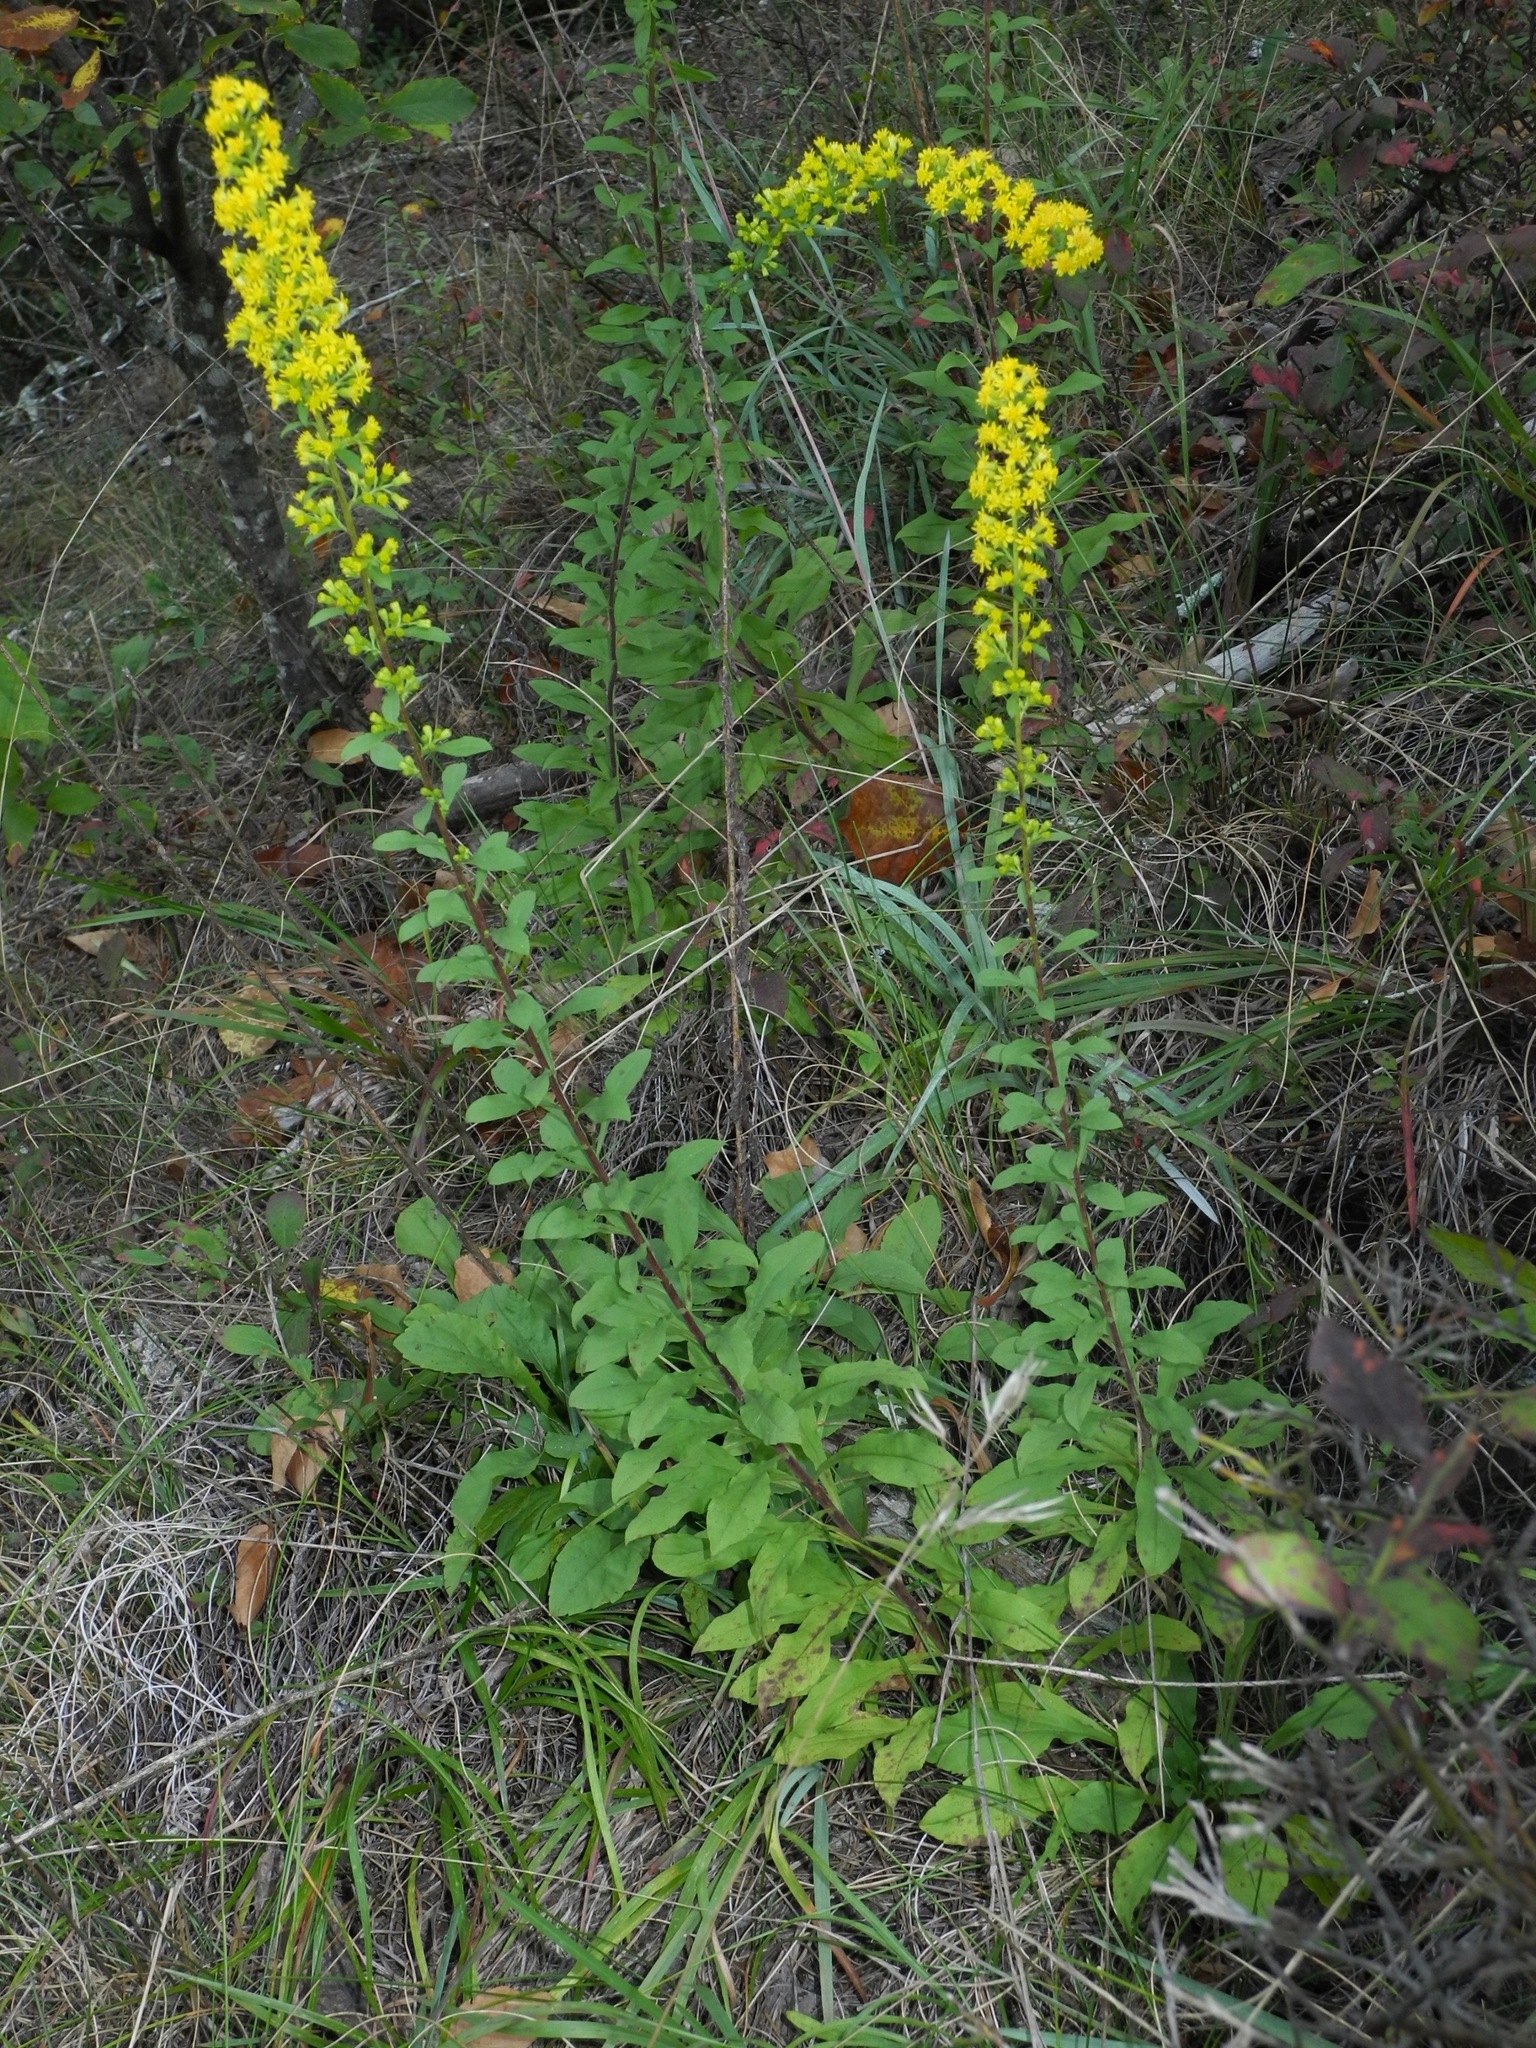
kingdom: Plantae
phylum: Tracheophyta
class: Magnoliopsida
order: Asterales
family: Asteraceae
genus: Solidago
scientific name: Solidago erecta
